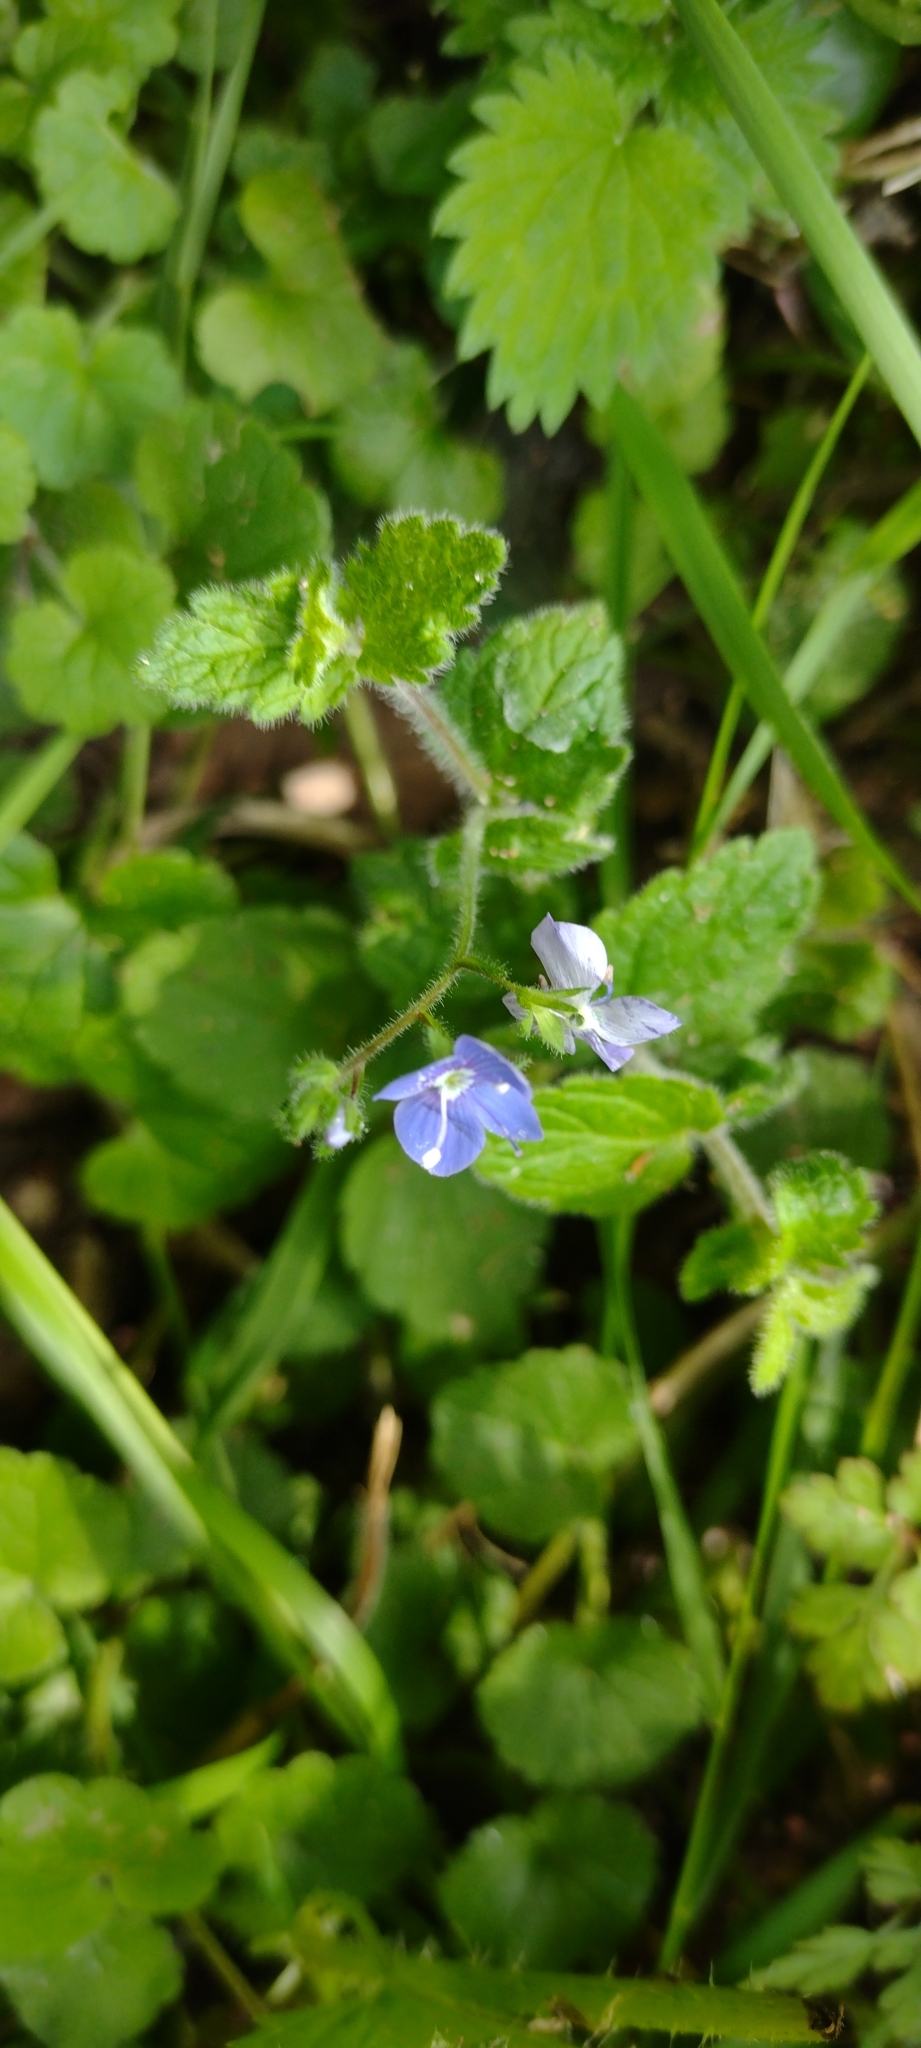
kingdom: Plantae
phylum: Tracheophyta
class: Magnoliopsida
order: Lamiales
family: Plantaginaceae
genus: Veronica
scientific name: Veronica chamaedrys
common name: Germander speedwell
